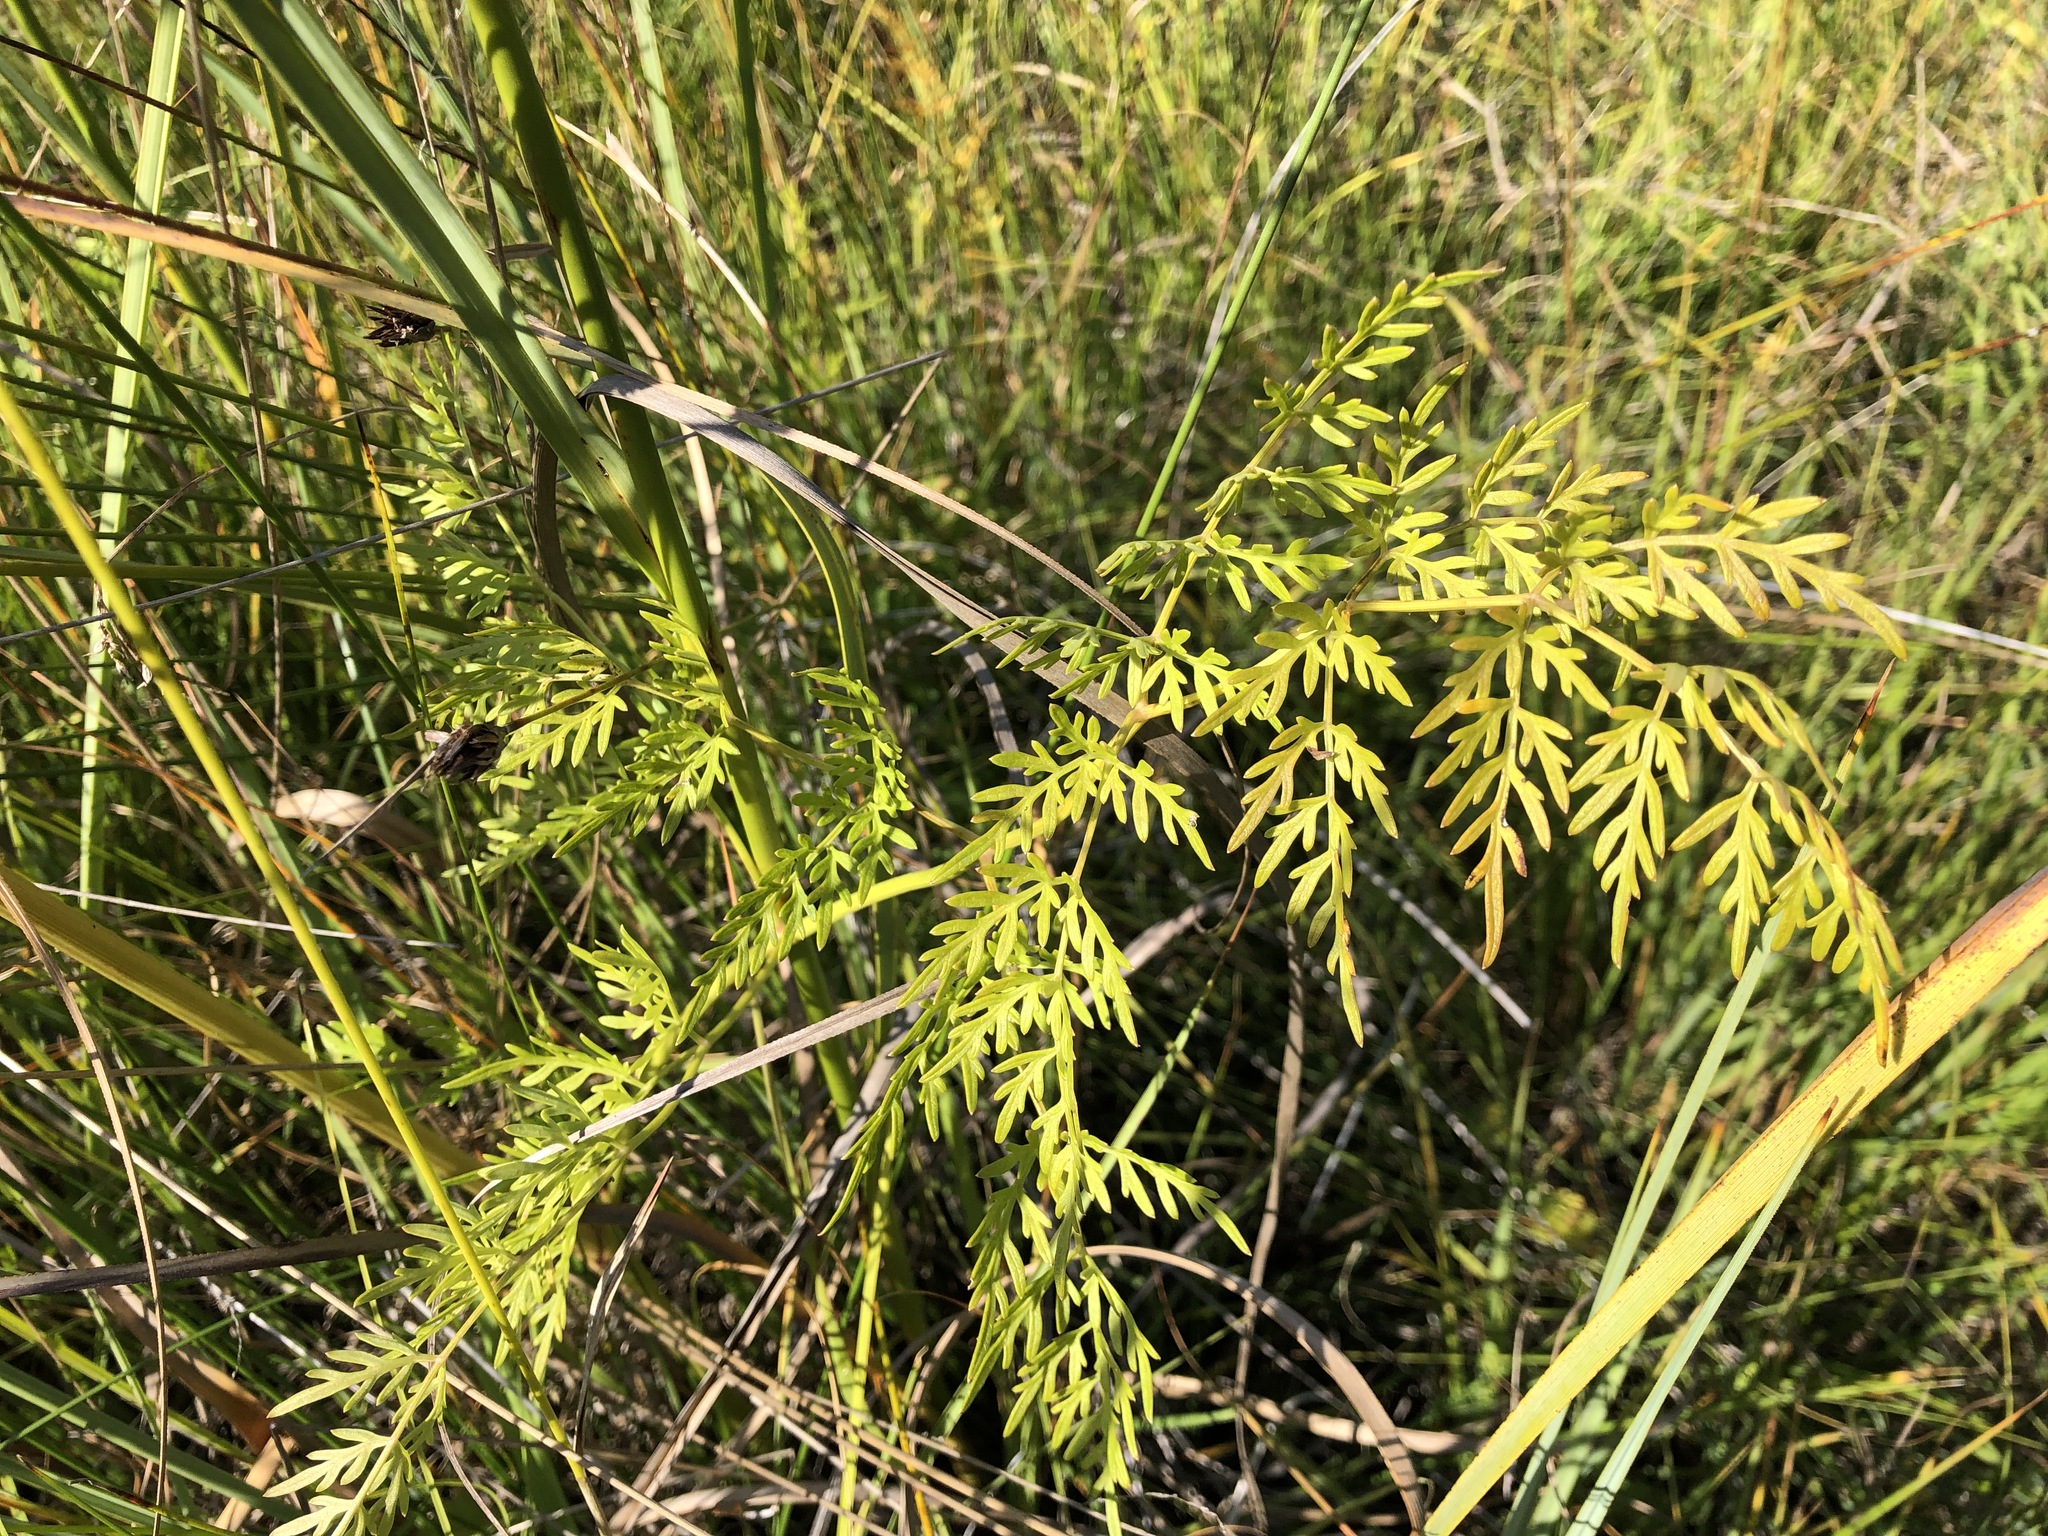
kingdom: Plantae
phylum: Tracheophyta
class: Magnoliopsida
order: Apiales
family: Apiaceae
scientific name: Apiaceae
